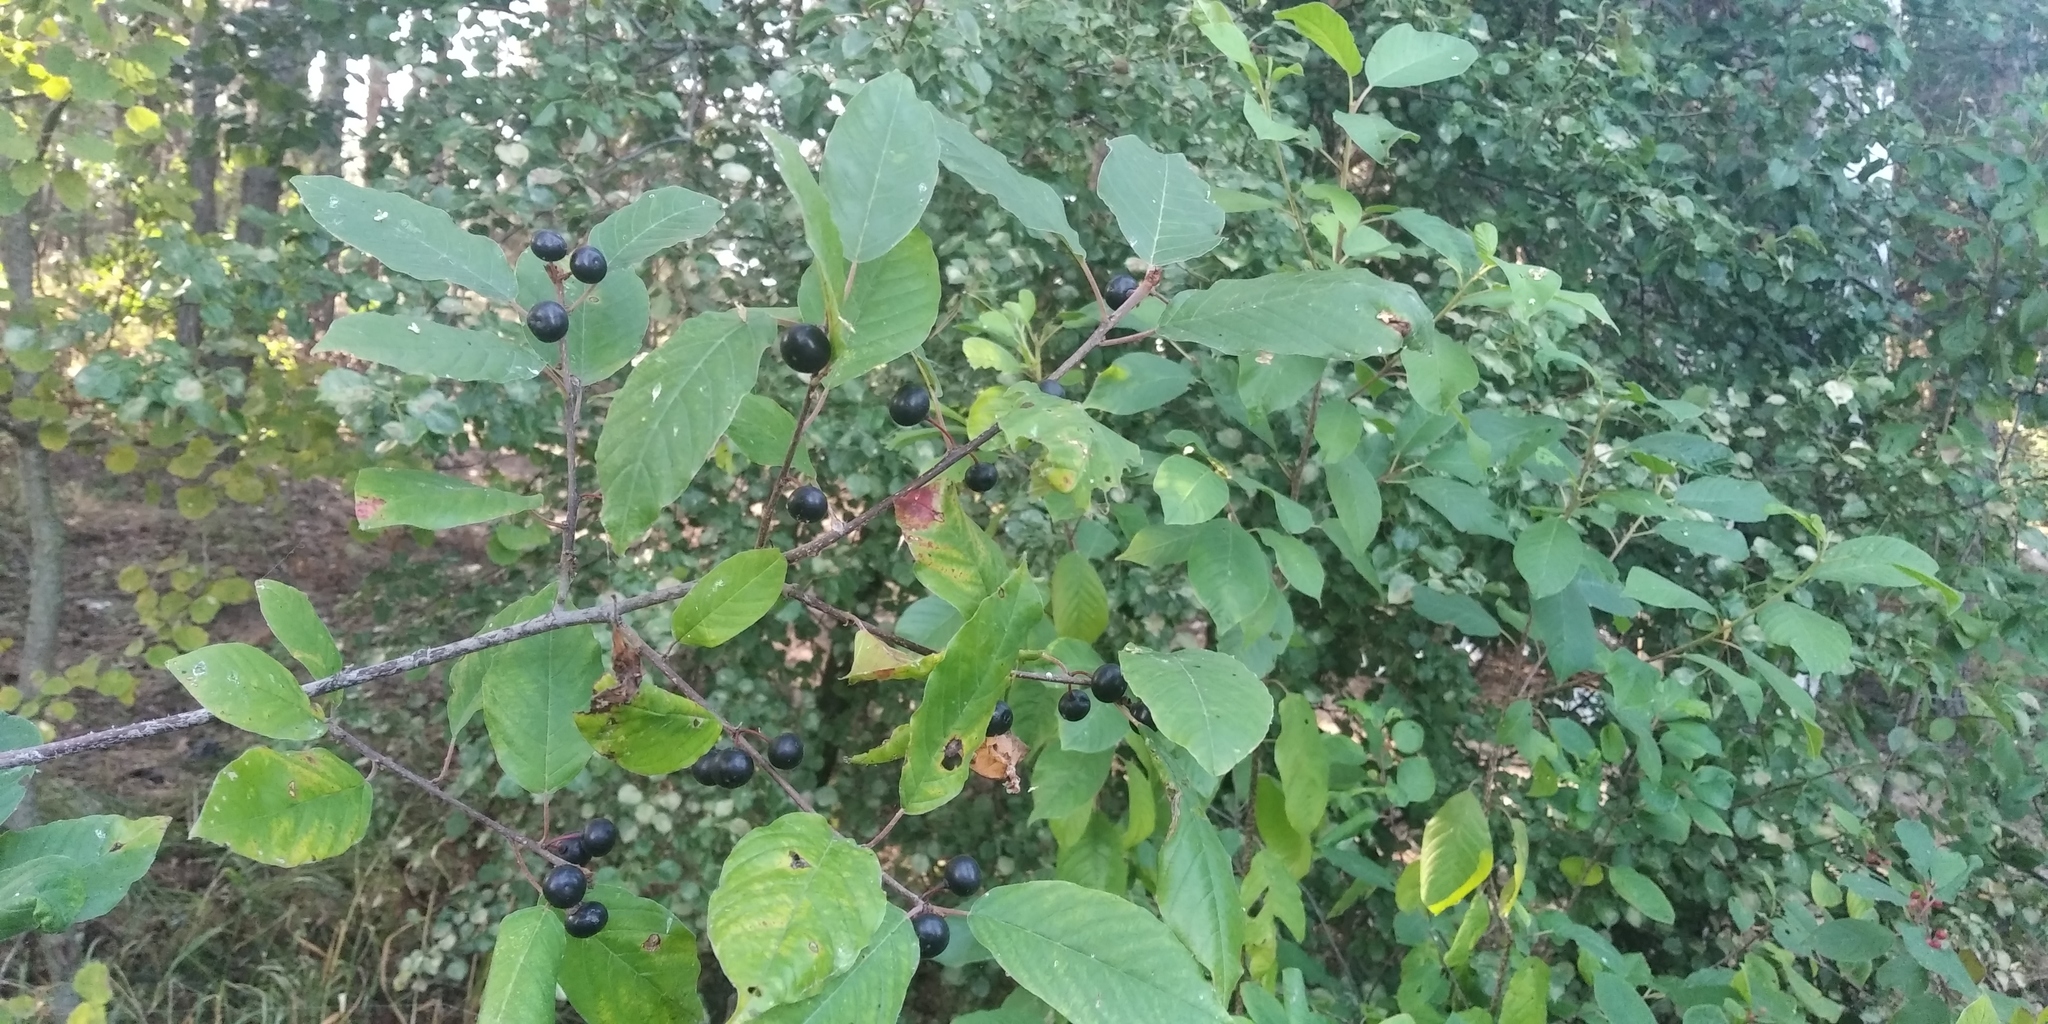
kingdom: Plantae
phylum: Tracheophyta
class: Magnoliopsida
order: Rosales
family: Rhamnaceae
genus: Frangula
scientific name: Frangula alnus
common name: Alder buckthorn
